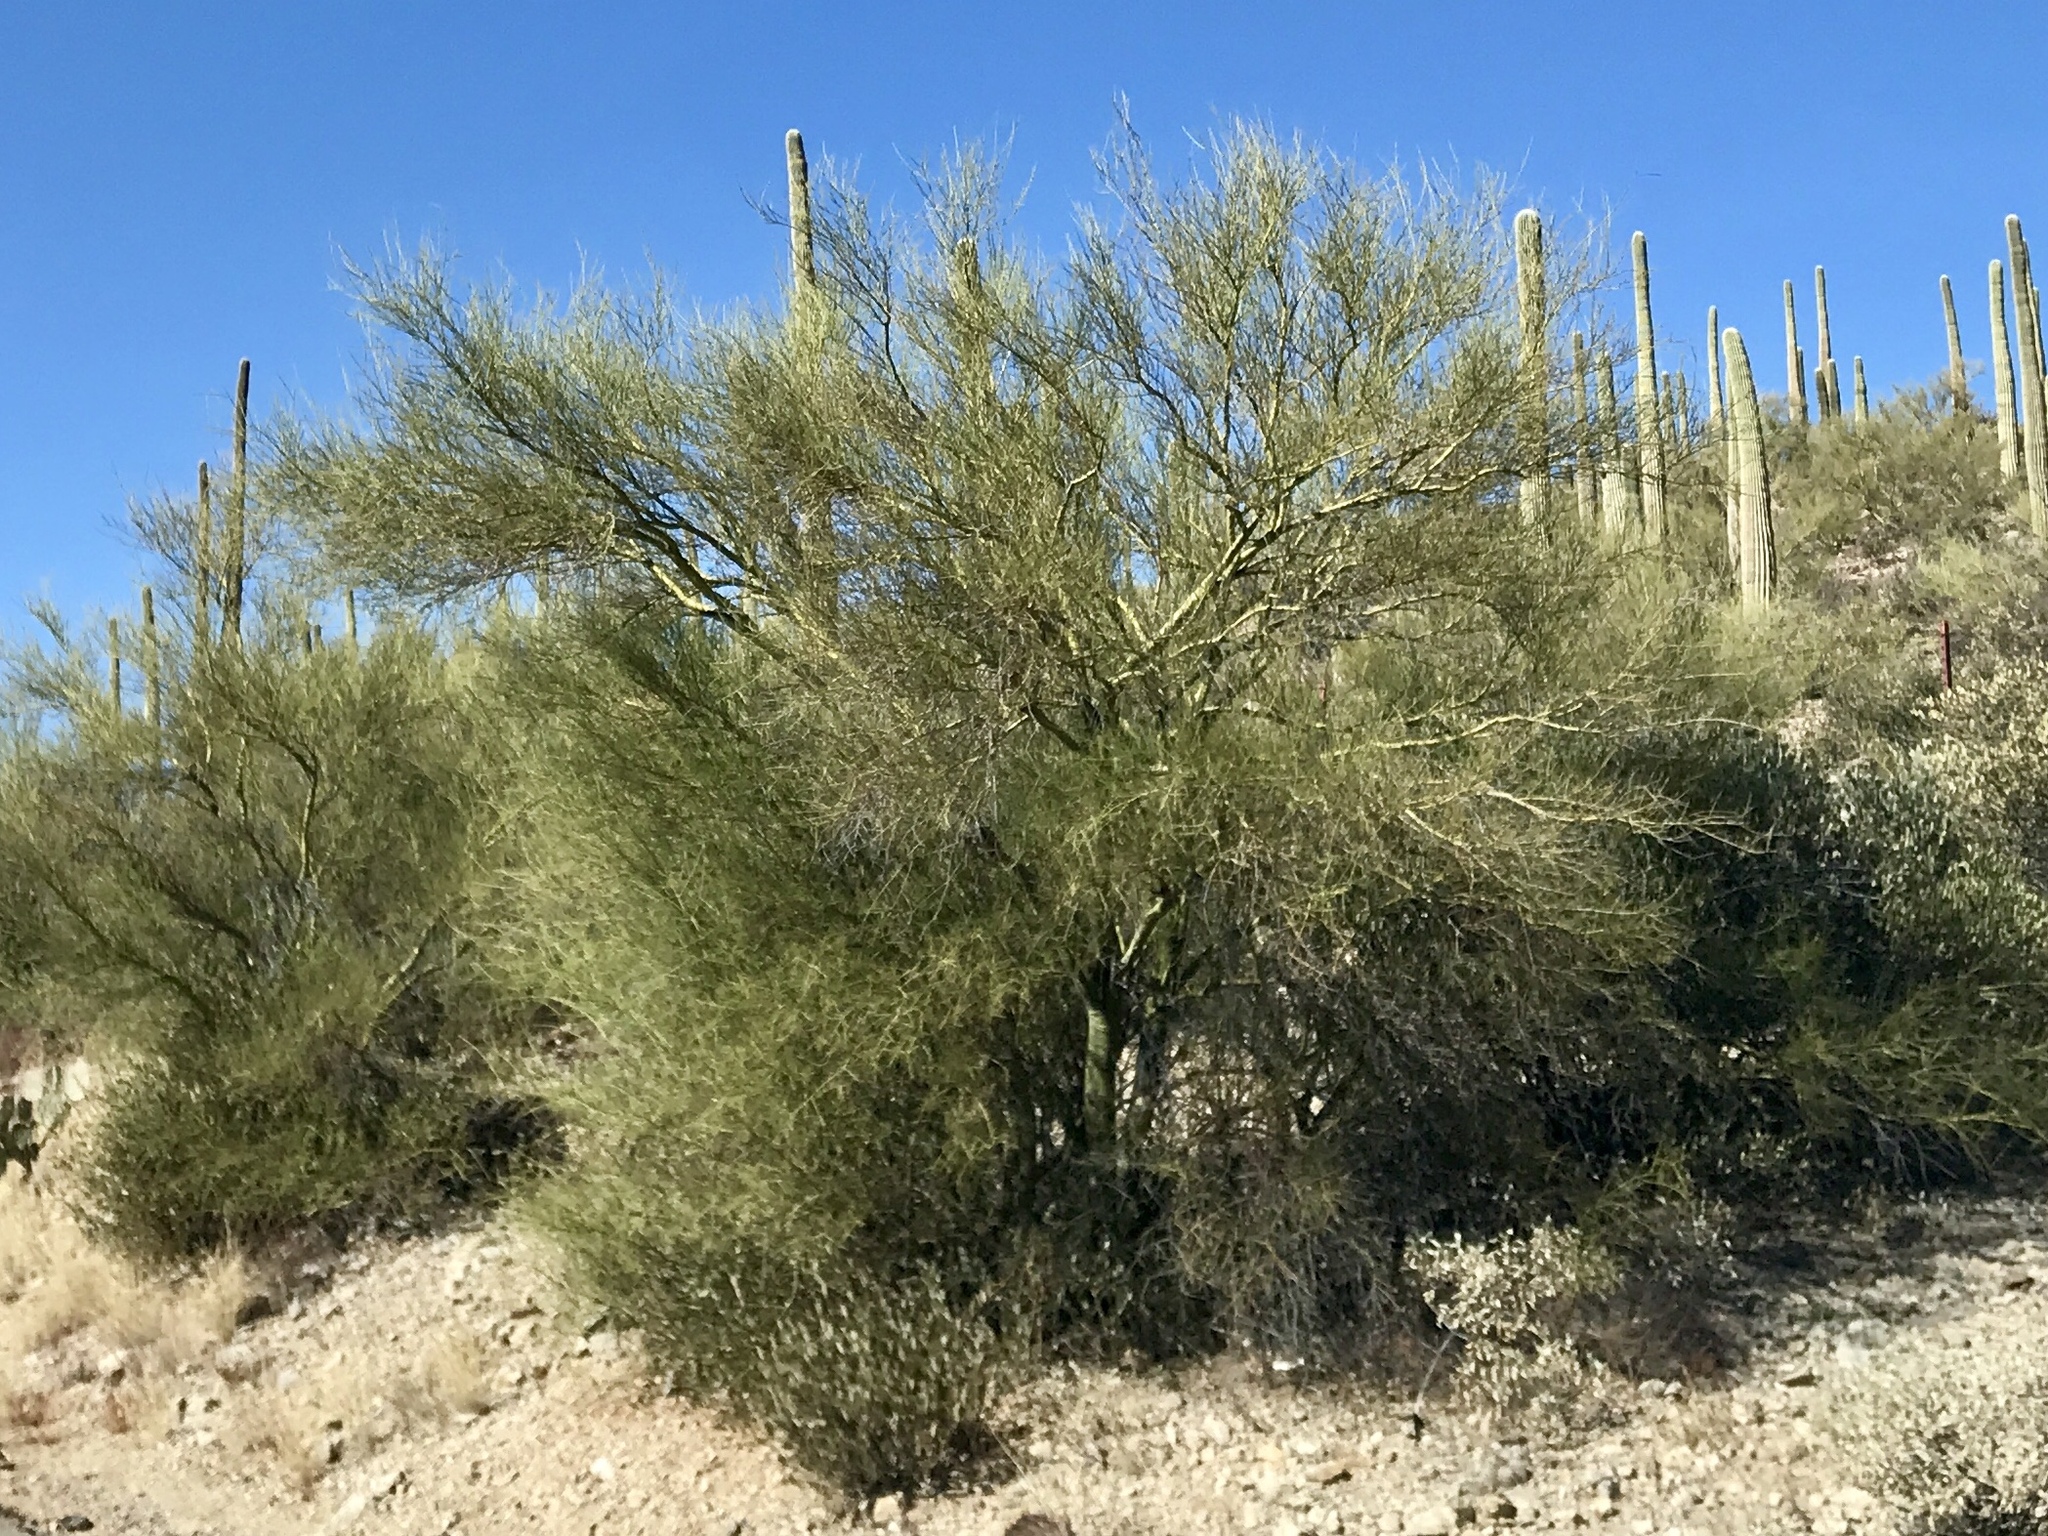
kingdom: Plantae
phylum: Tracheophyta
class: Magnoliopsida
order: Fabales
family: Fabaceae
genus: Parkinsonia
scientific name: Parkinsonia microphylla
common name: Yellow paloverde
